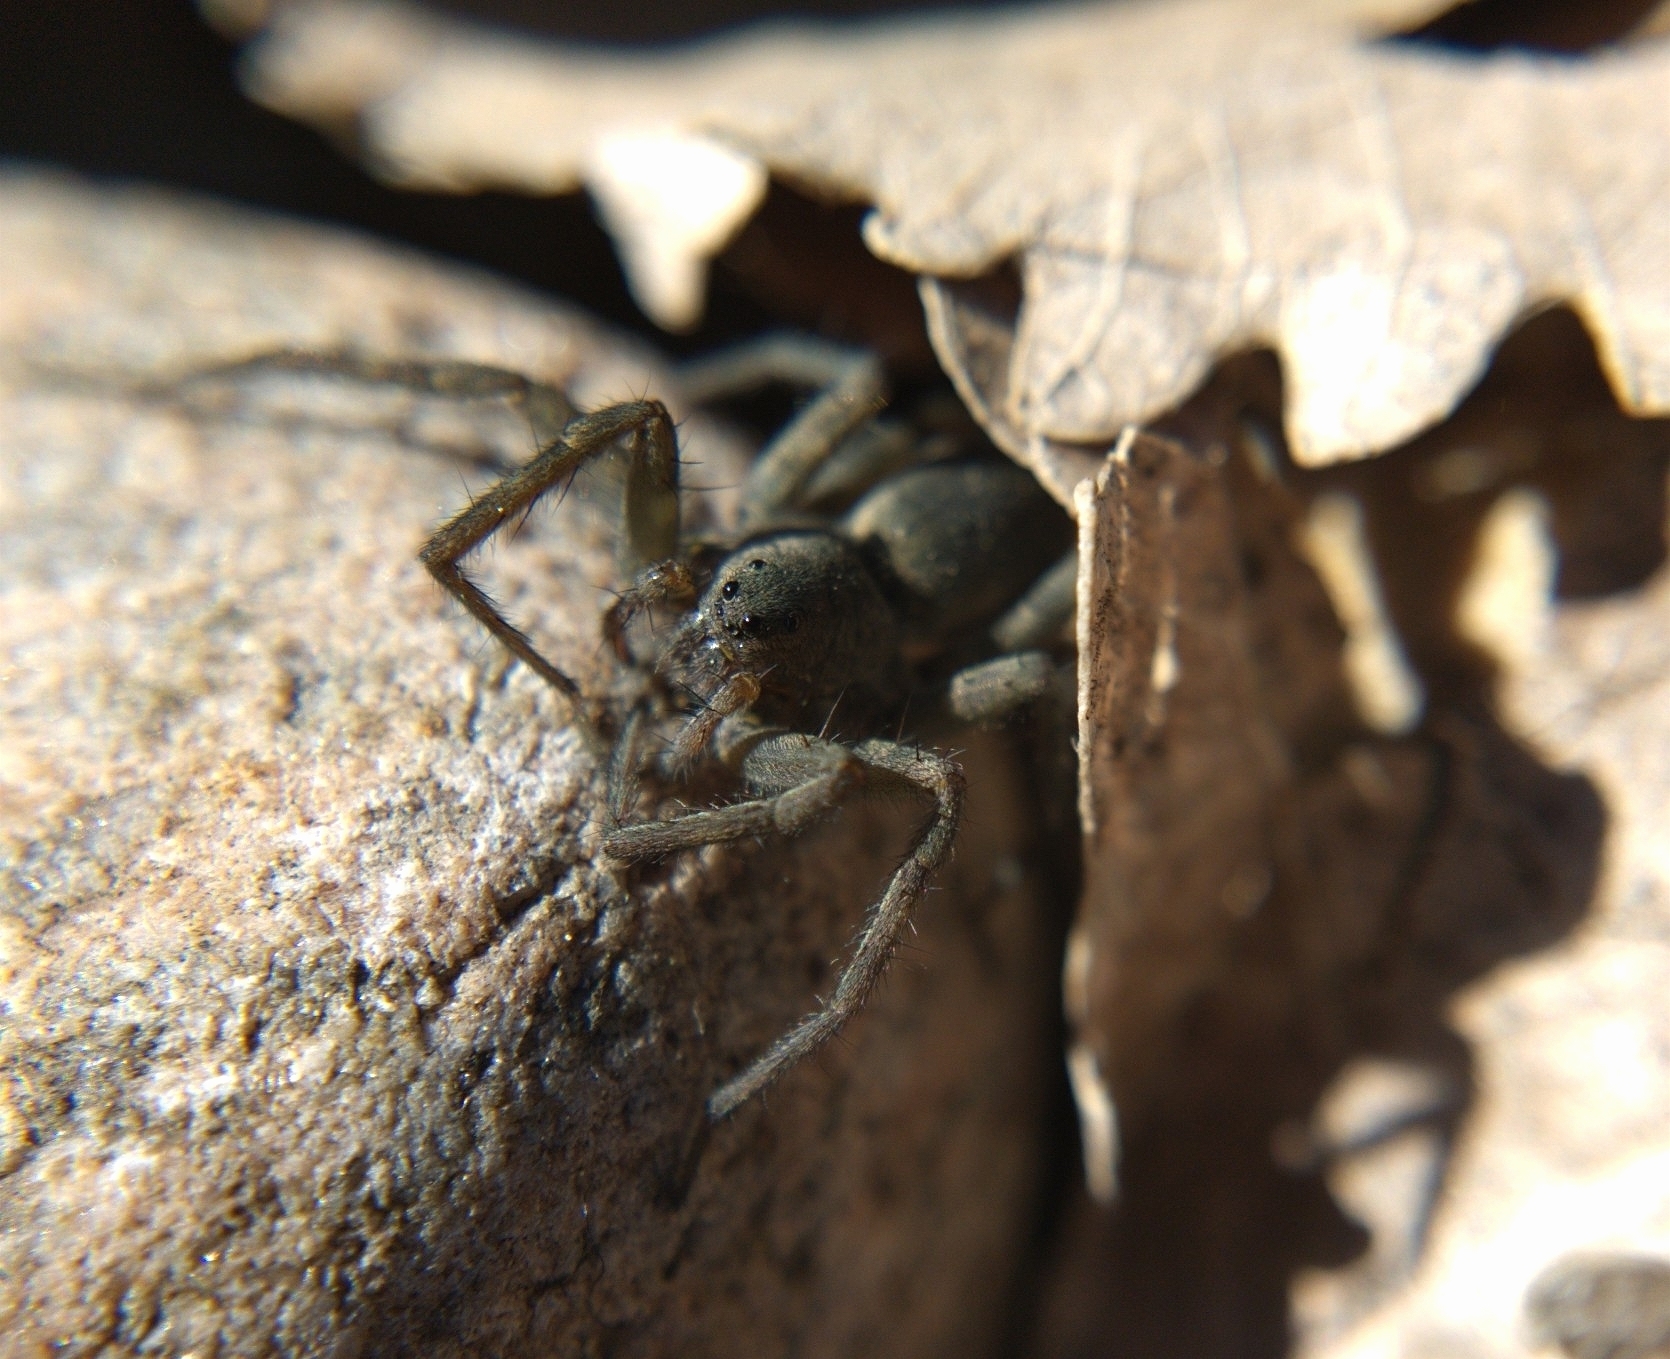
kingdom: Animalia
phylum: Arthropoda
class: Arachnida
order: Araneae
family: Lycosidae
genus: Pardosa
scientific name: Pardosa lapidicina
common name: Stone spider
